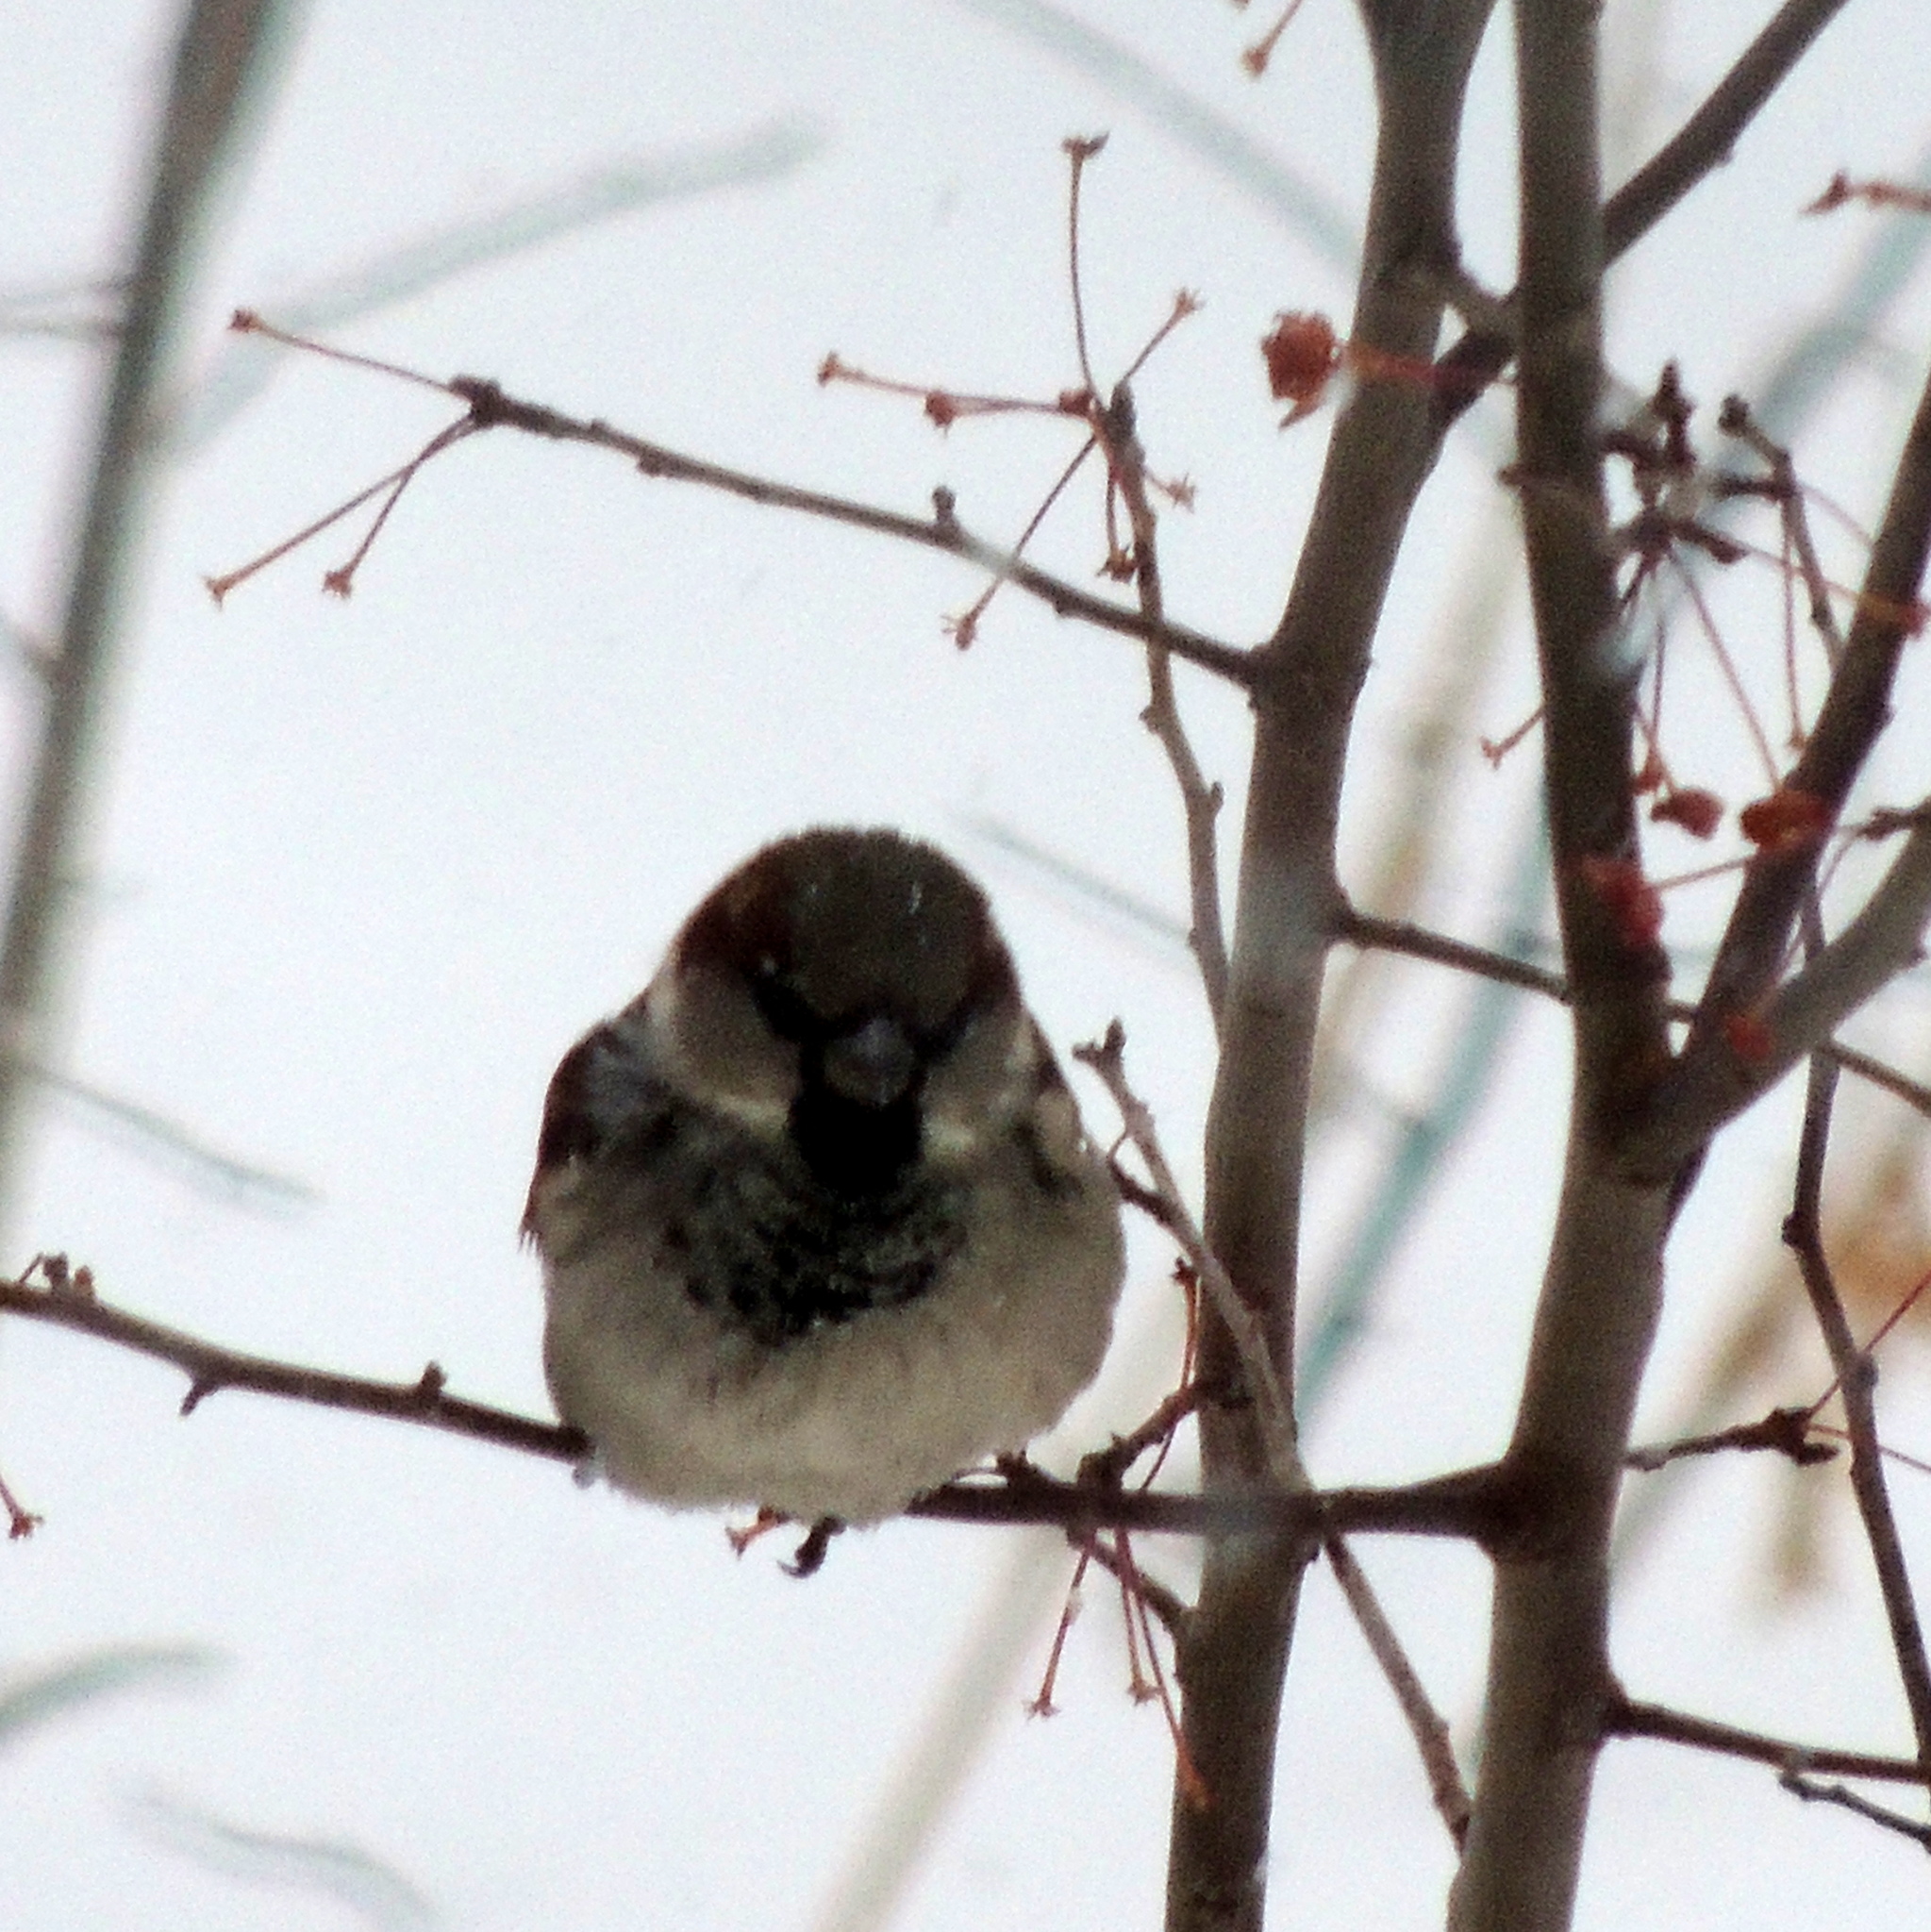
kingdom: Animalia
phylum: Chordata
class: Aves
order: Passeriformes
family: Passeridae
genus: Passer
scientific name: Passer domesticus
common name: House sparrow
